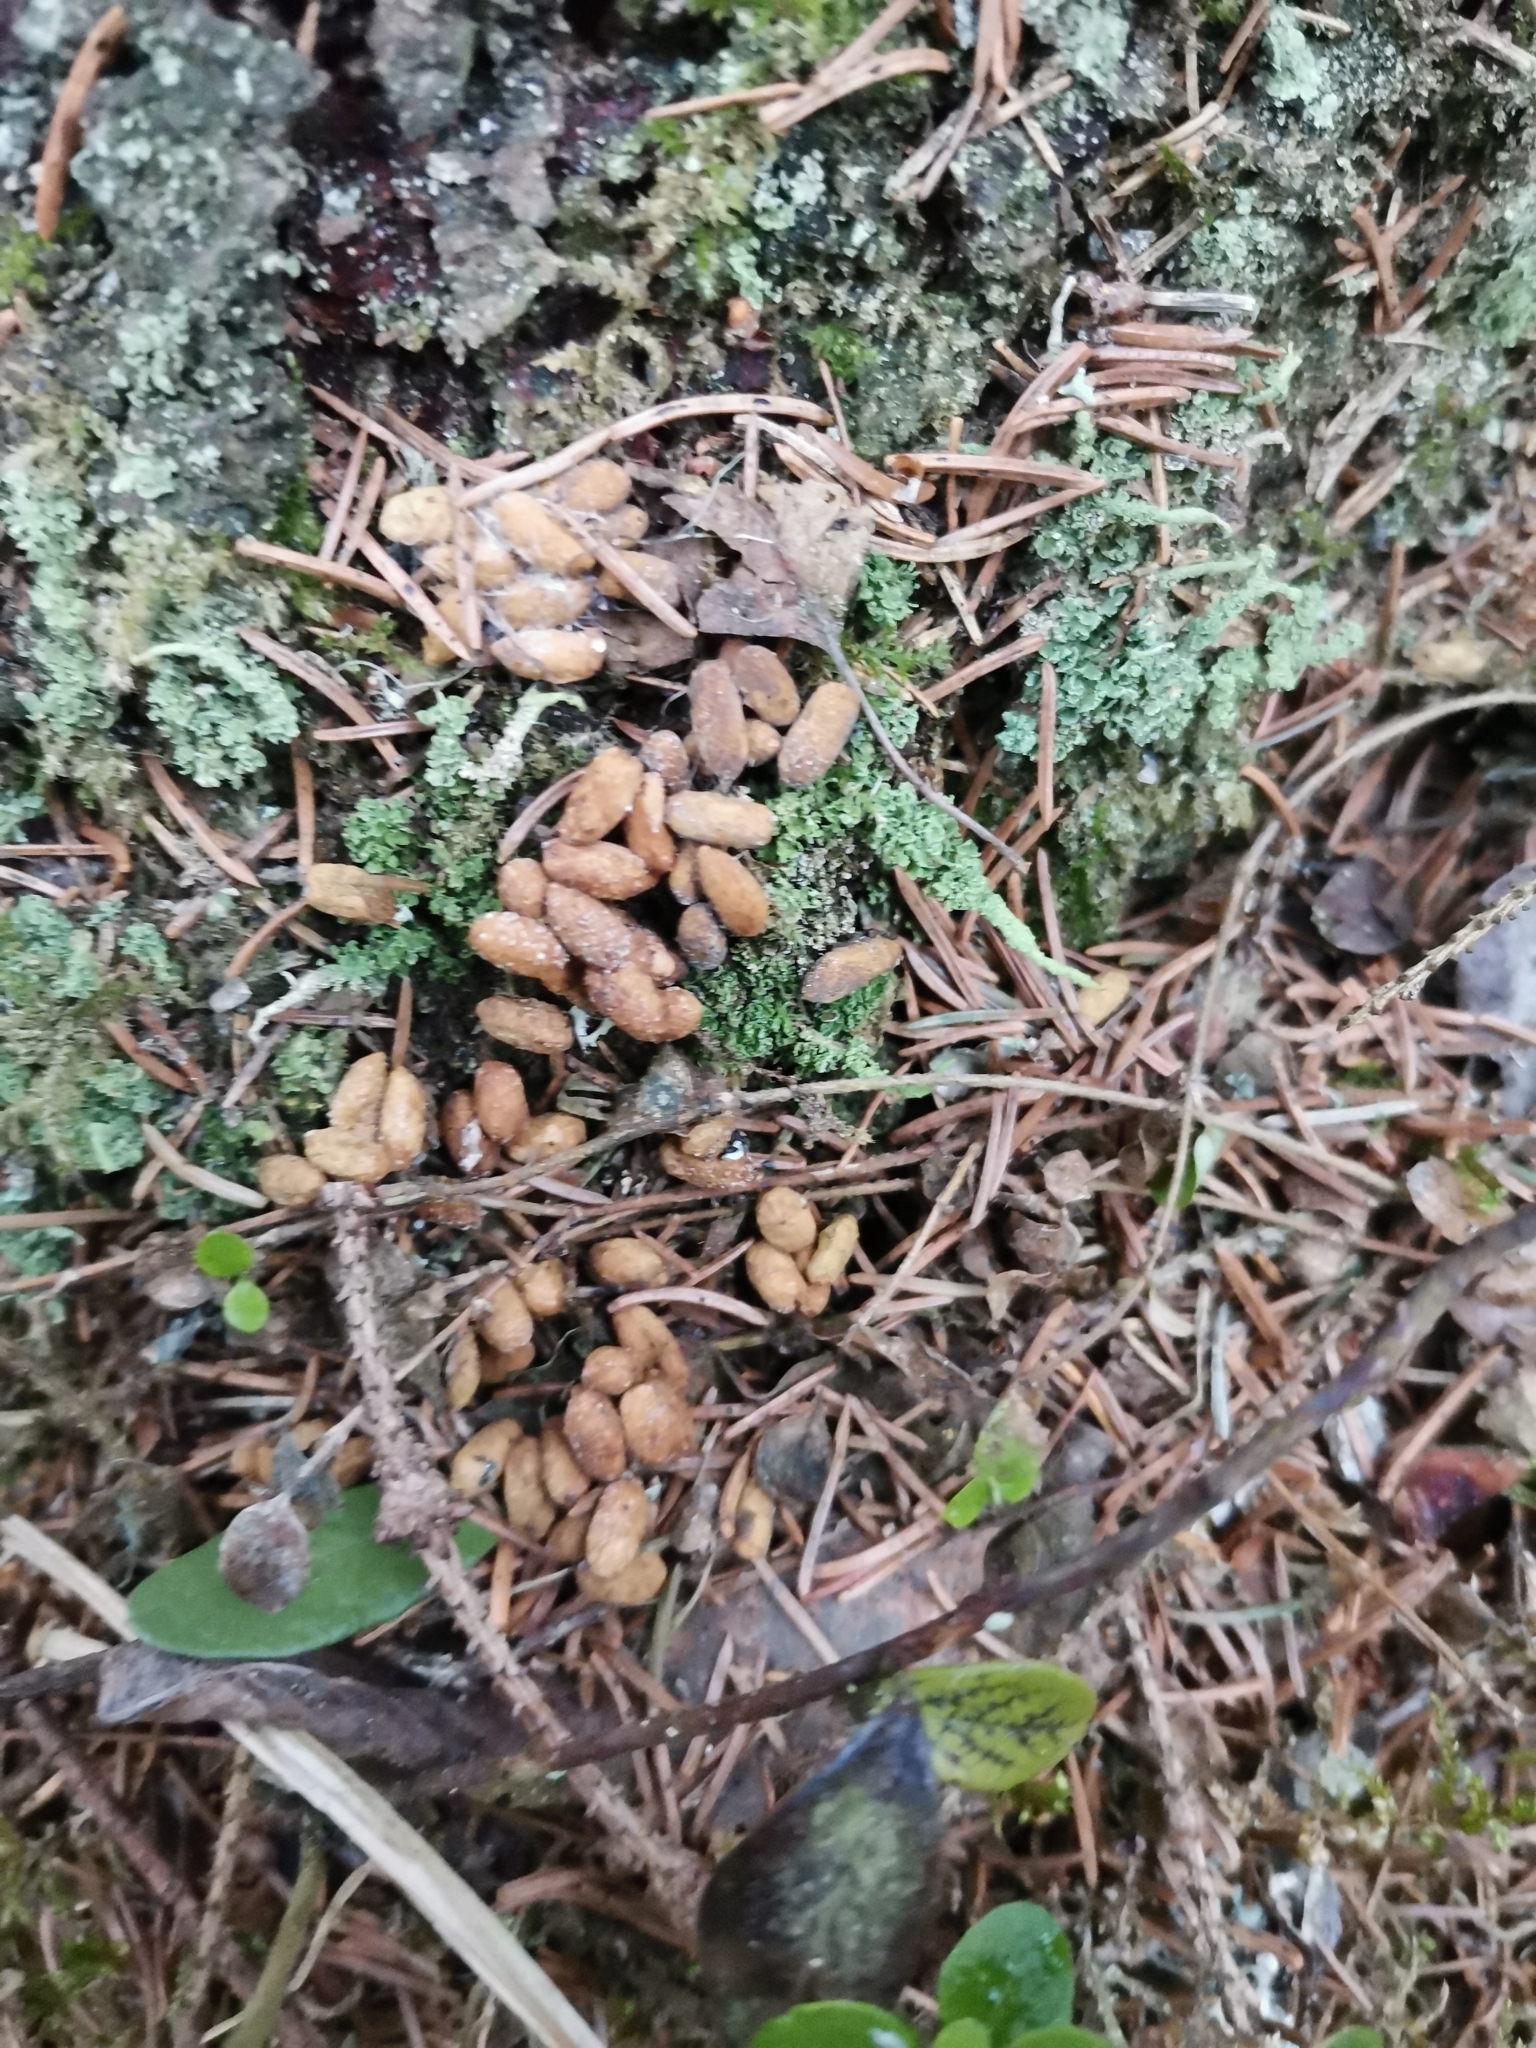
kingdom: Animalia
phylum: Chordata
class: Mammalia
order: Rodentia
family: Sciuridae
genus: Pteromys
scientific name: Pteromys volans
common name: Siberian flying squirrel
